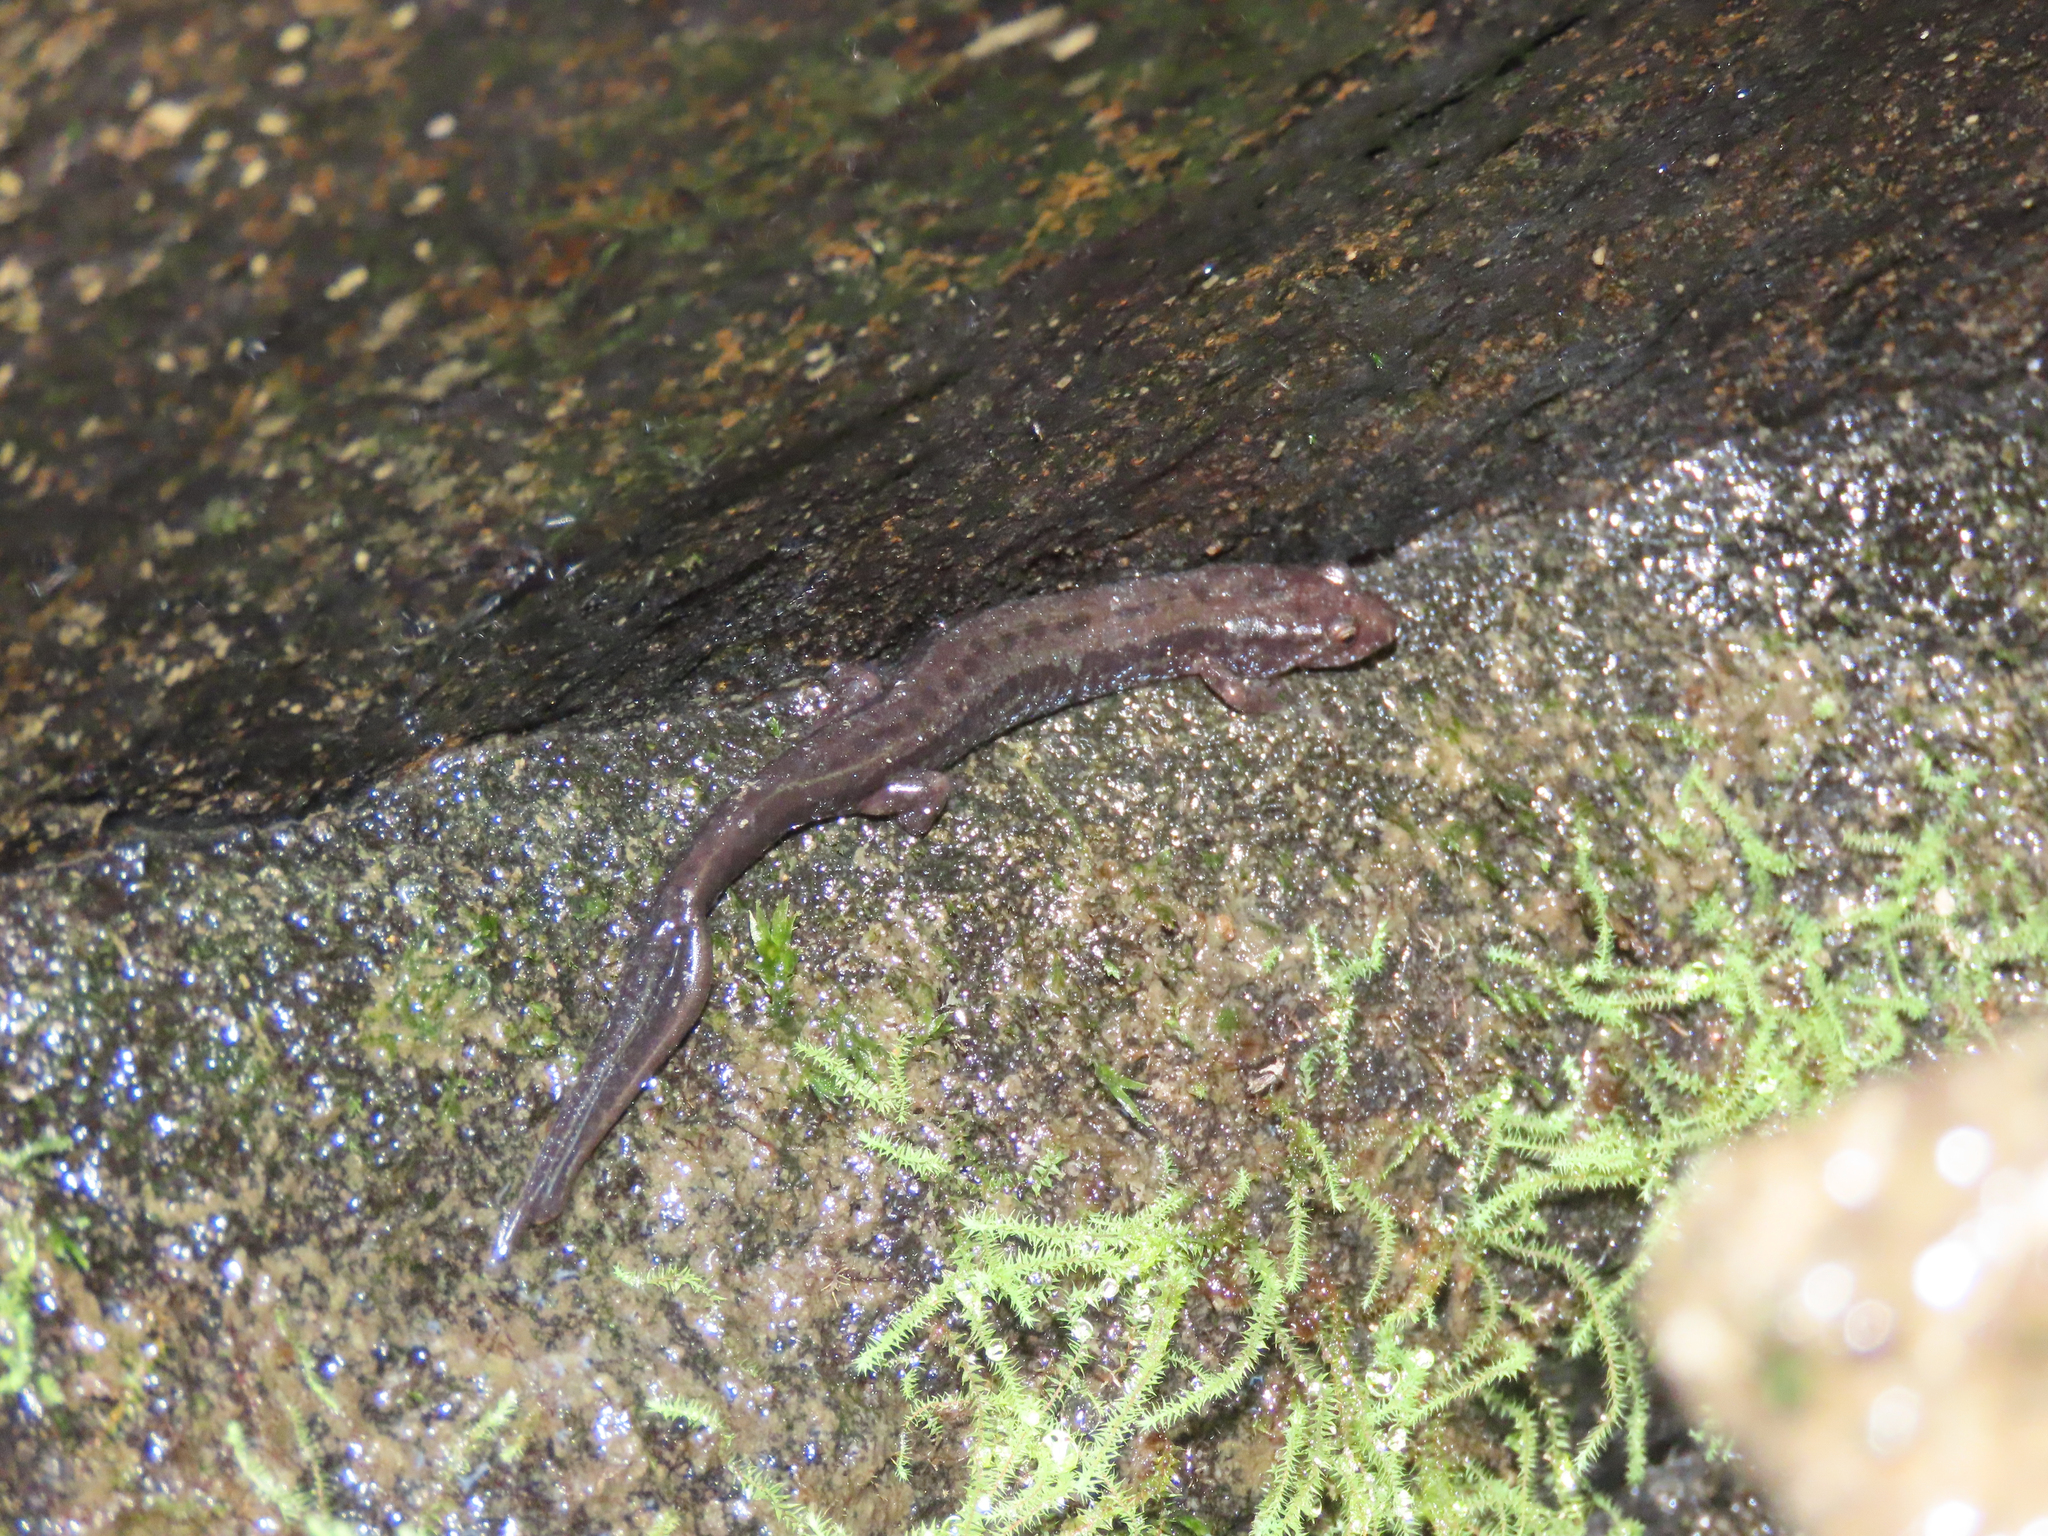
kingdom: Animalia
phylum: Chordata
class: Amphibia
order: Caudata
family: Plethodontidae
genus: Desmognathus
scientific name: Desmognathus ochrophaeus
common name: Allegheny mountain dusky salamander
